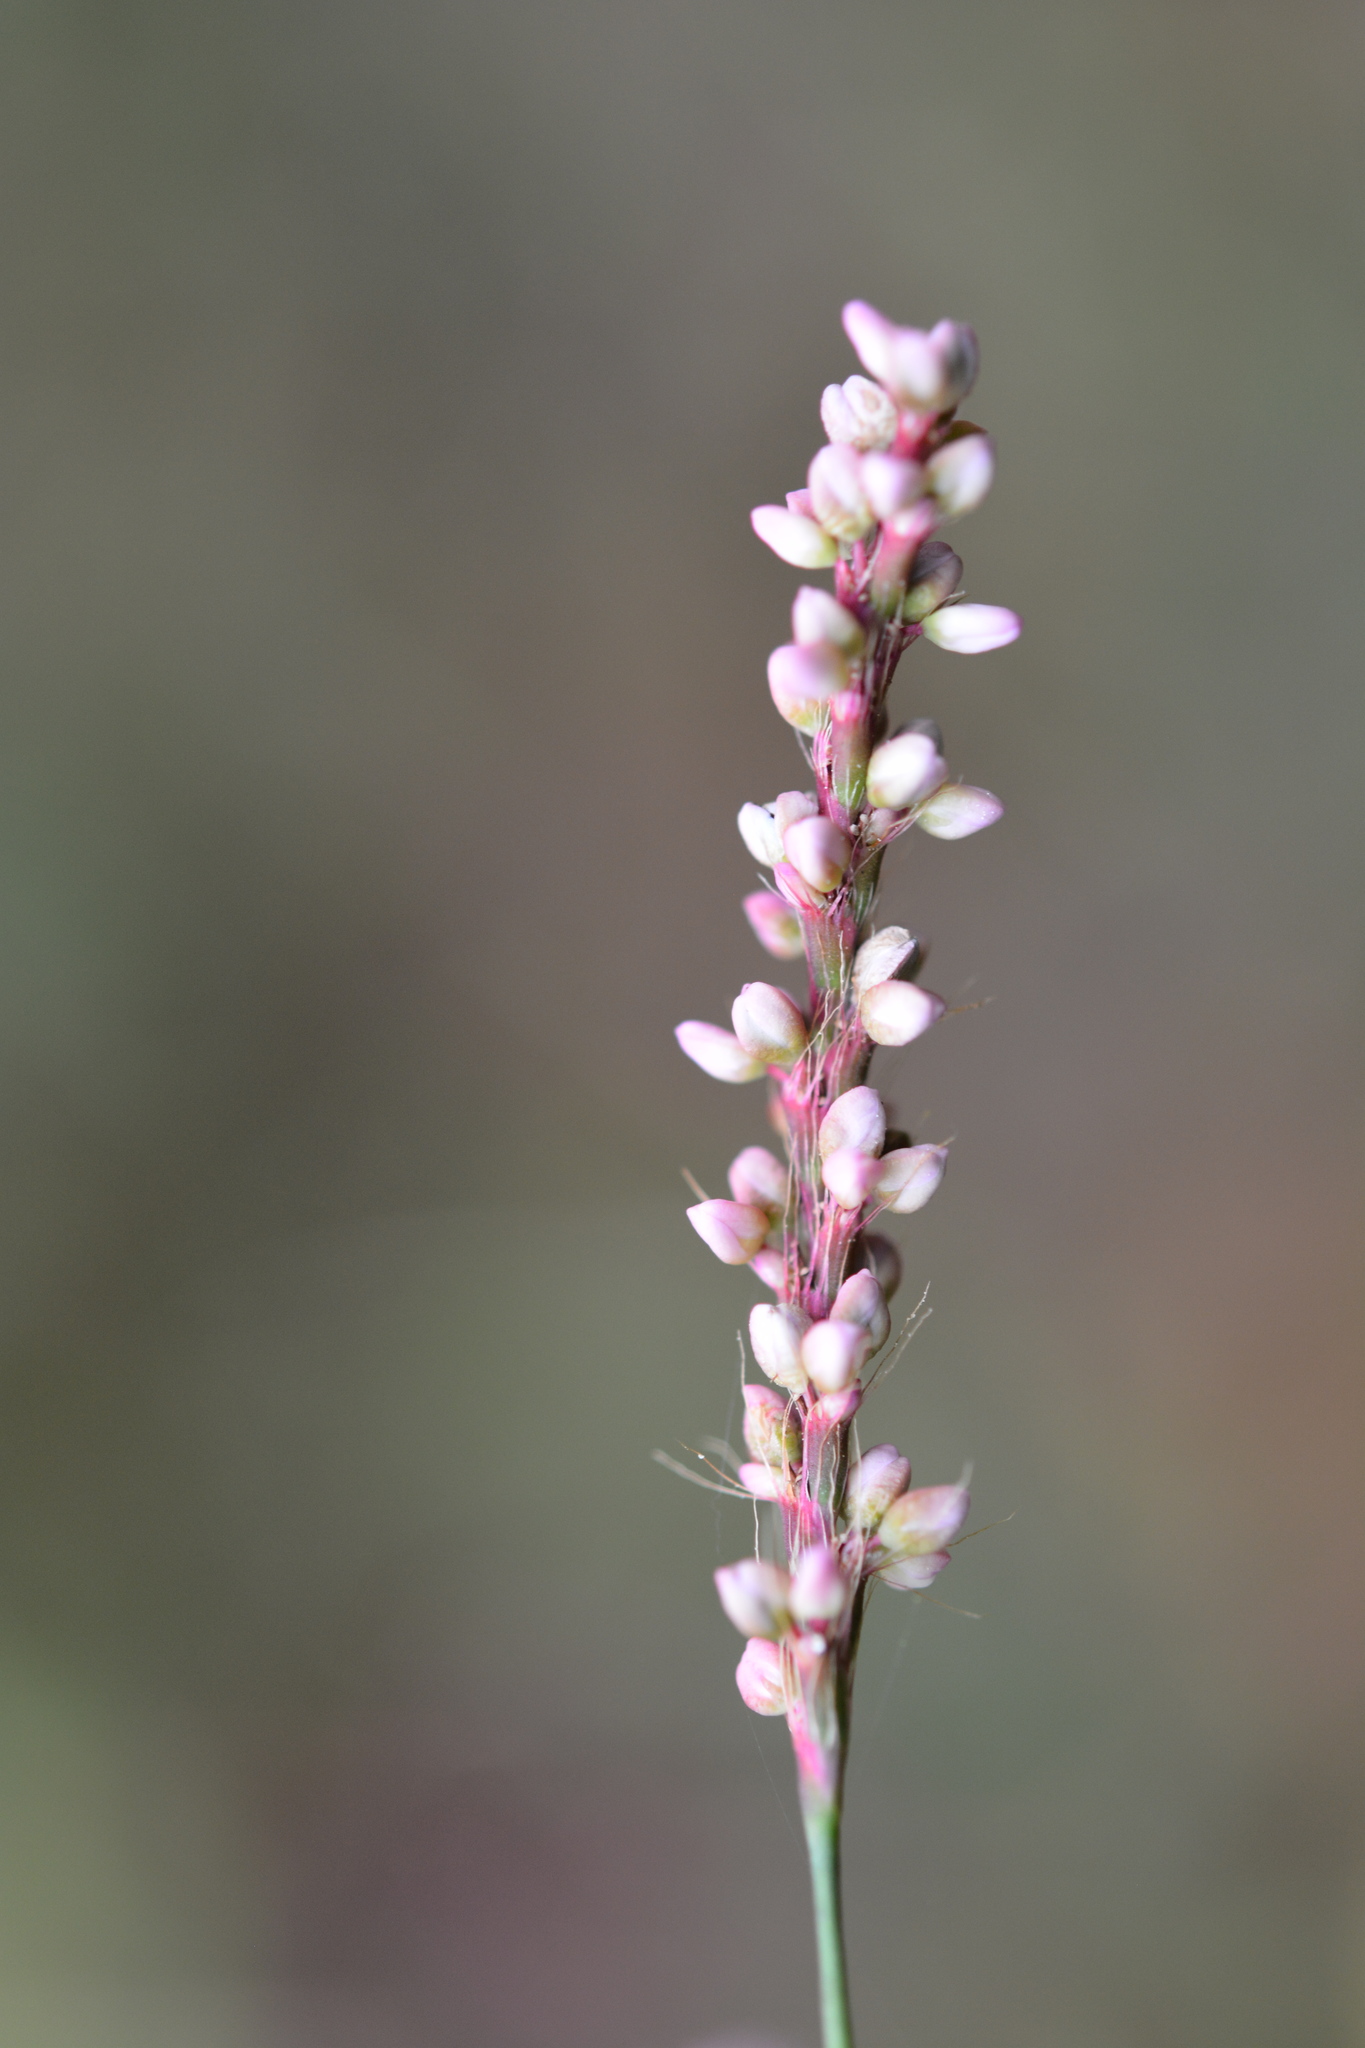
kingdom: Plantae
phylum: Tracheophyta
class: Magnoliopsida
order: Caryophyllales
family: Polygonaceae
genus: Persicaria
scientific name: Persicaria longiseta
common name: Bristly lady's-thumb
